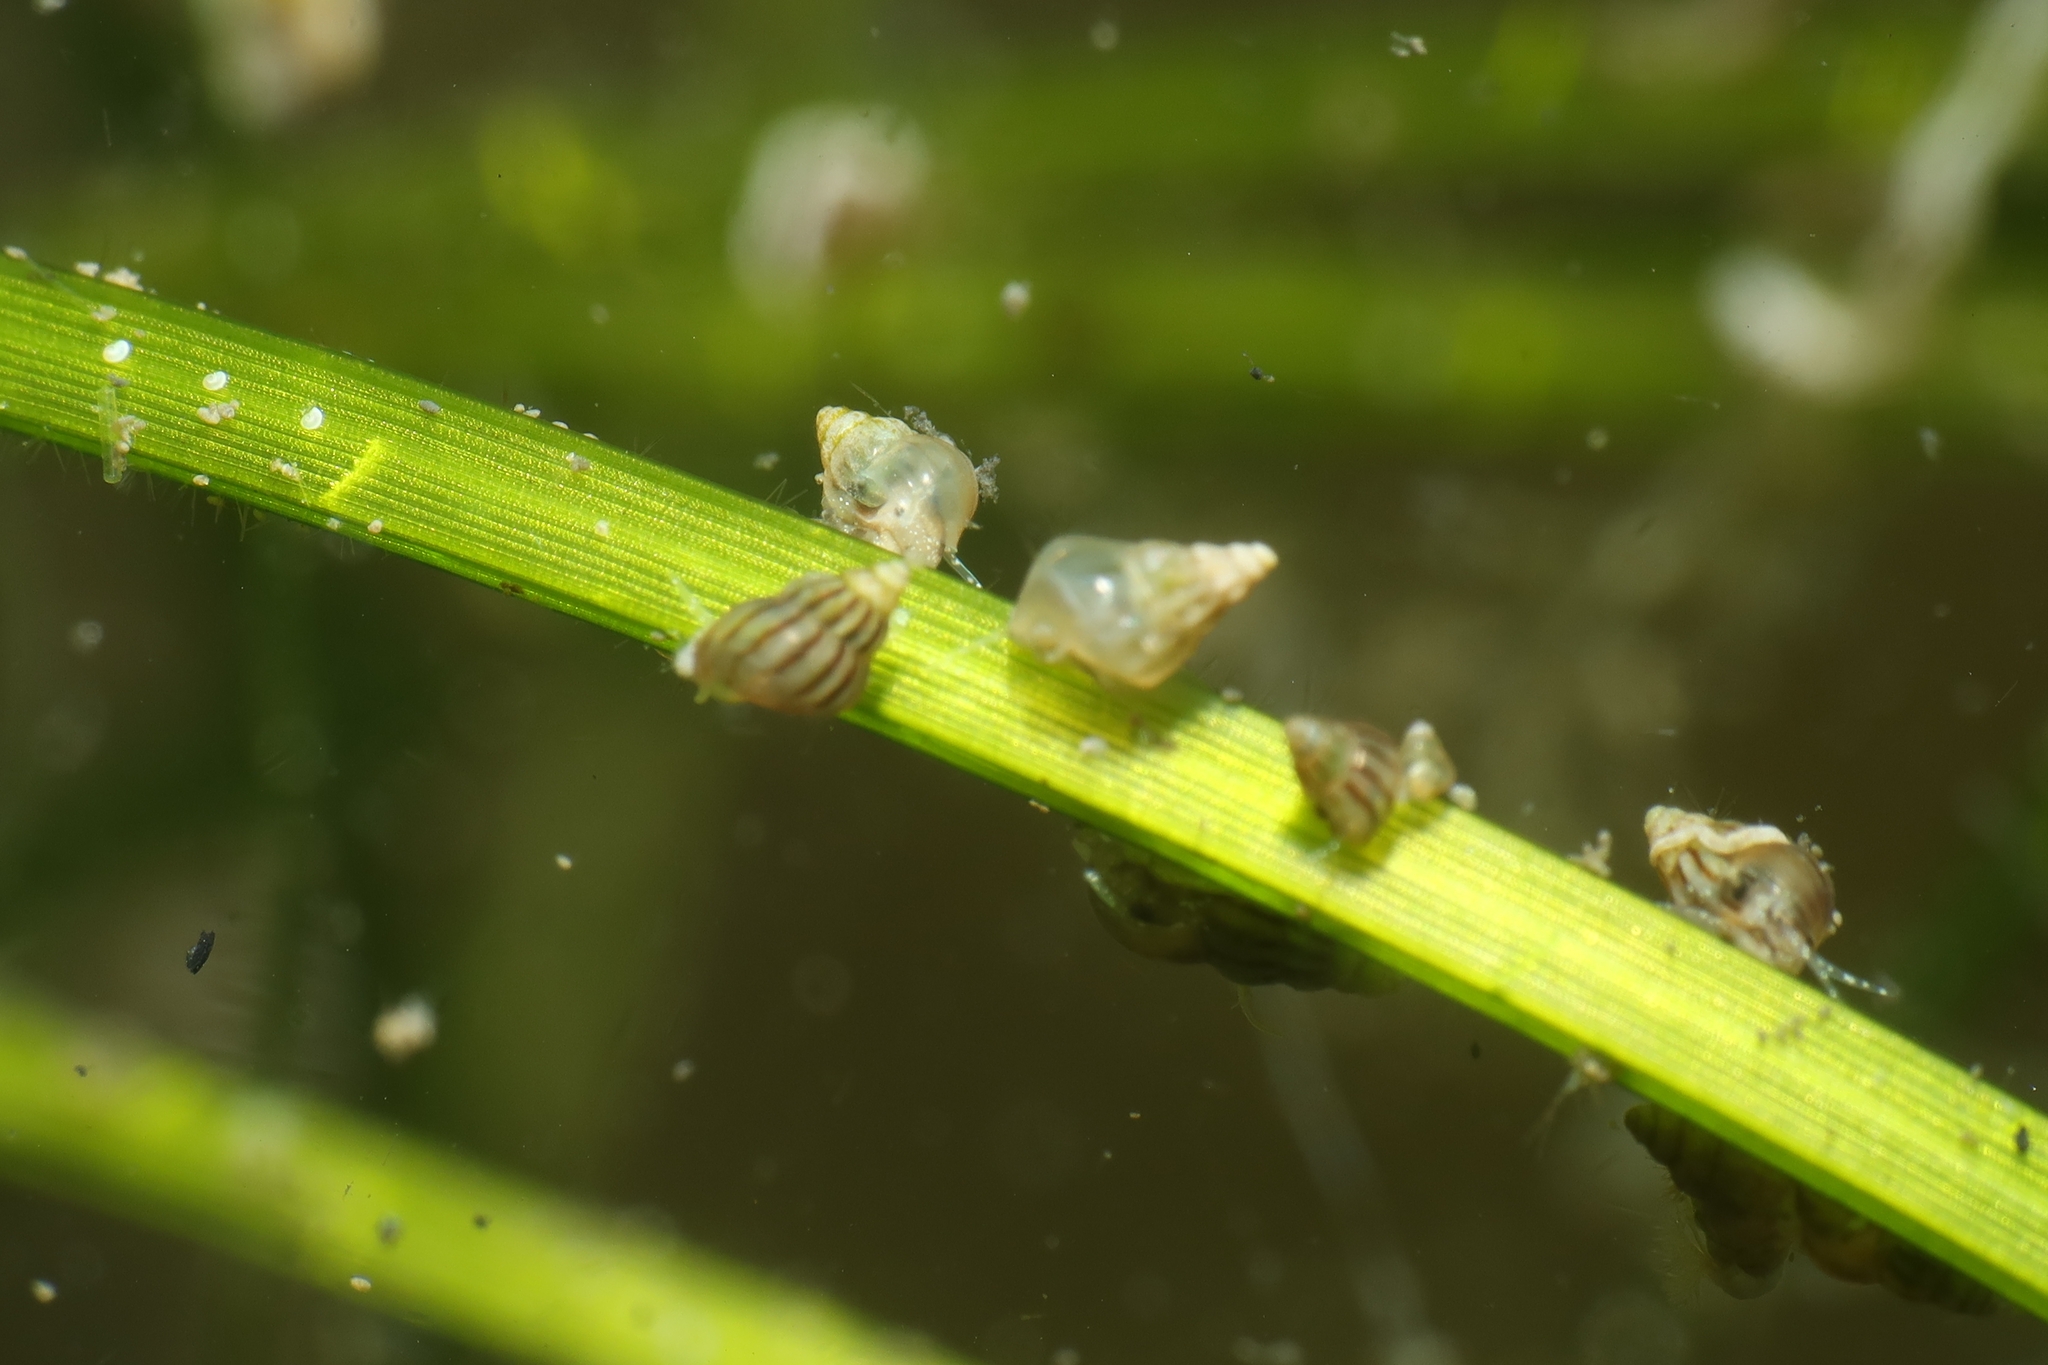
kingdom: Animalia
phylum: Mollusca
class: Gastropoda
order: Littorinimorpha
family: Rissoidae
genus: Pusillina
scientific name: Pusillina lineolata
